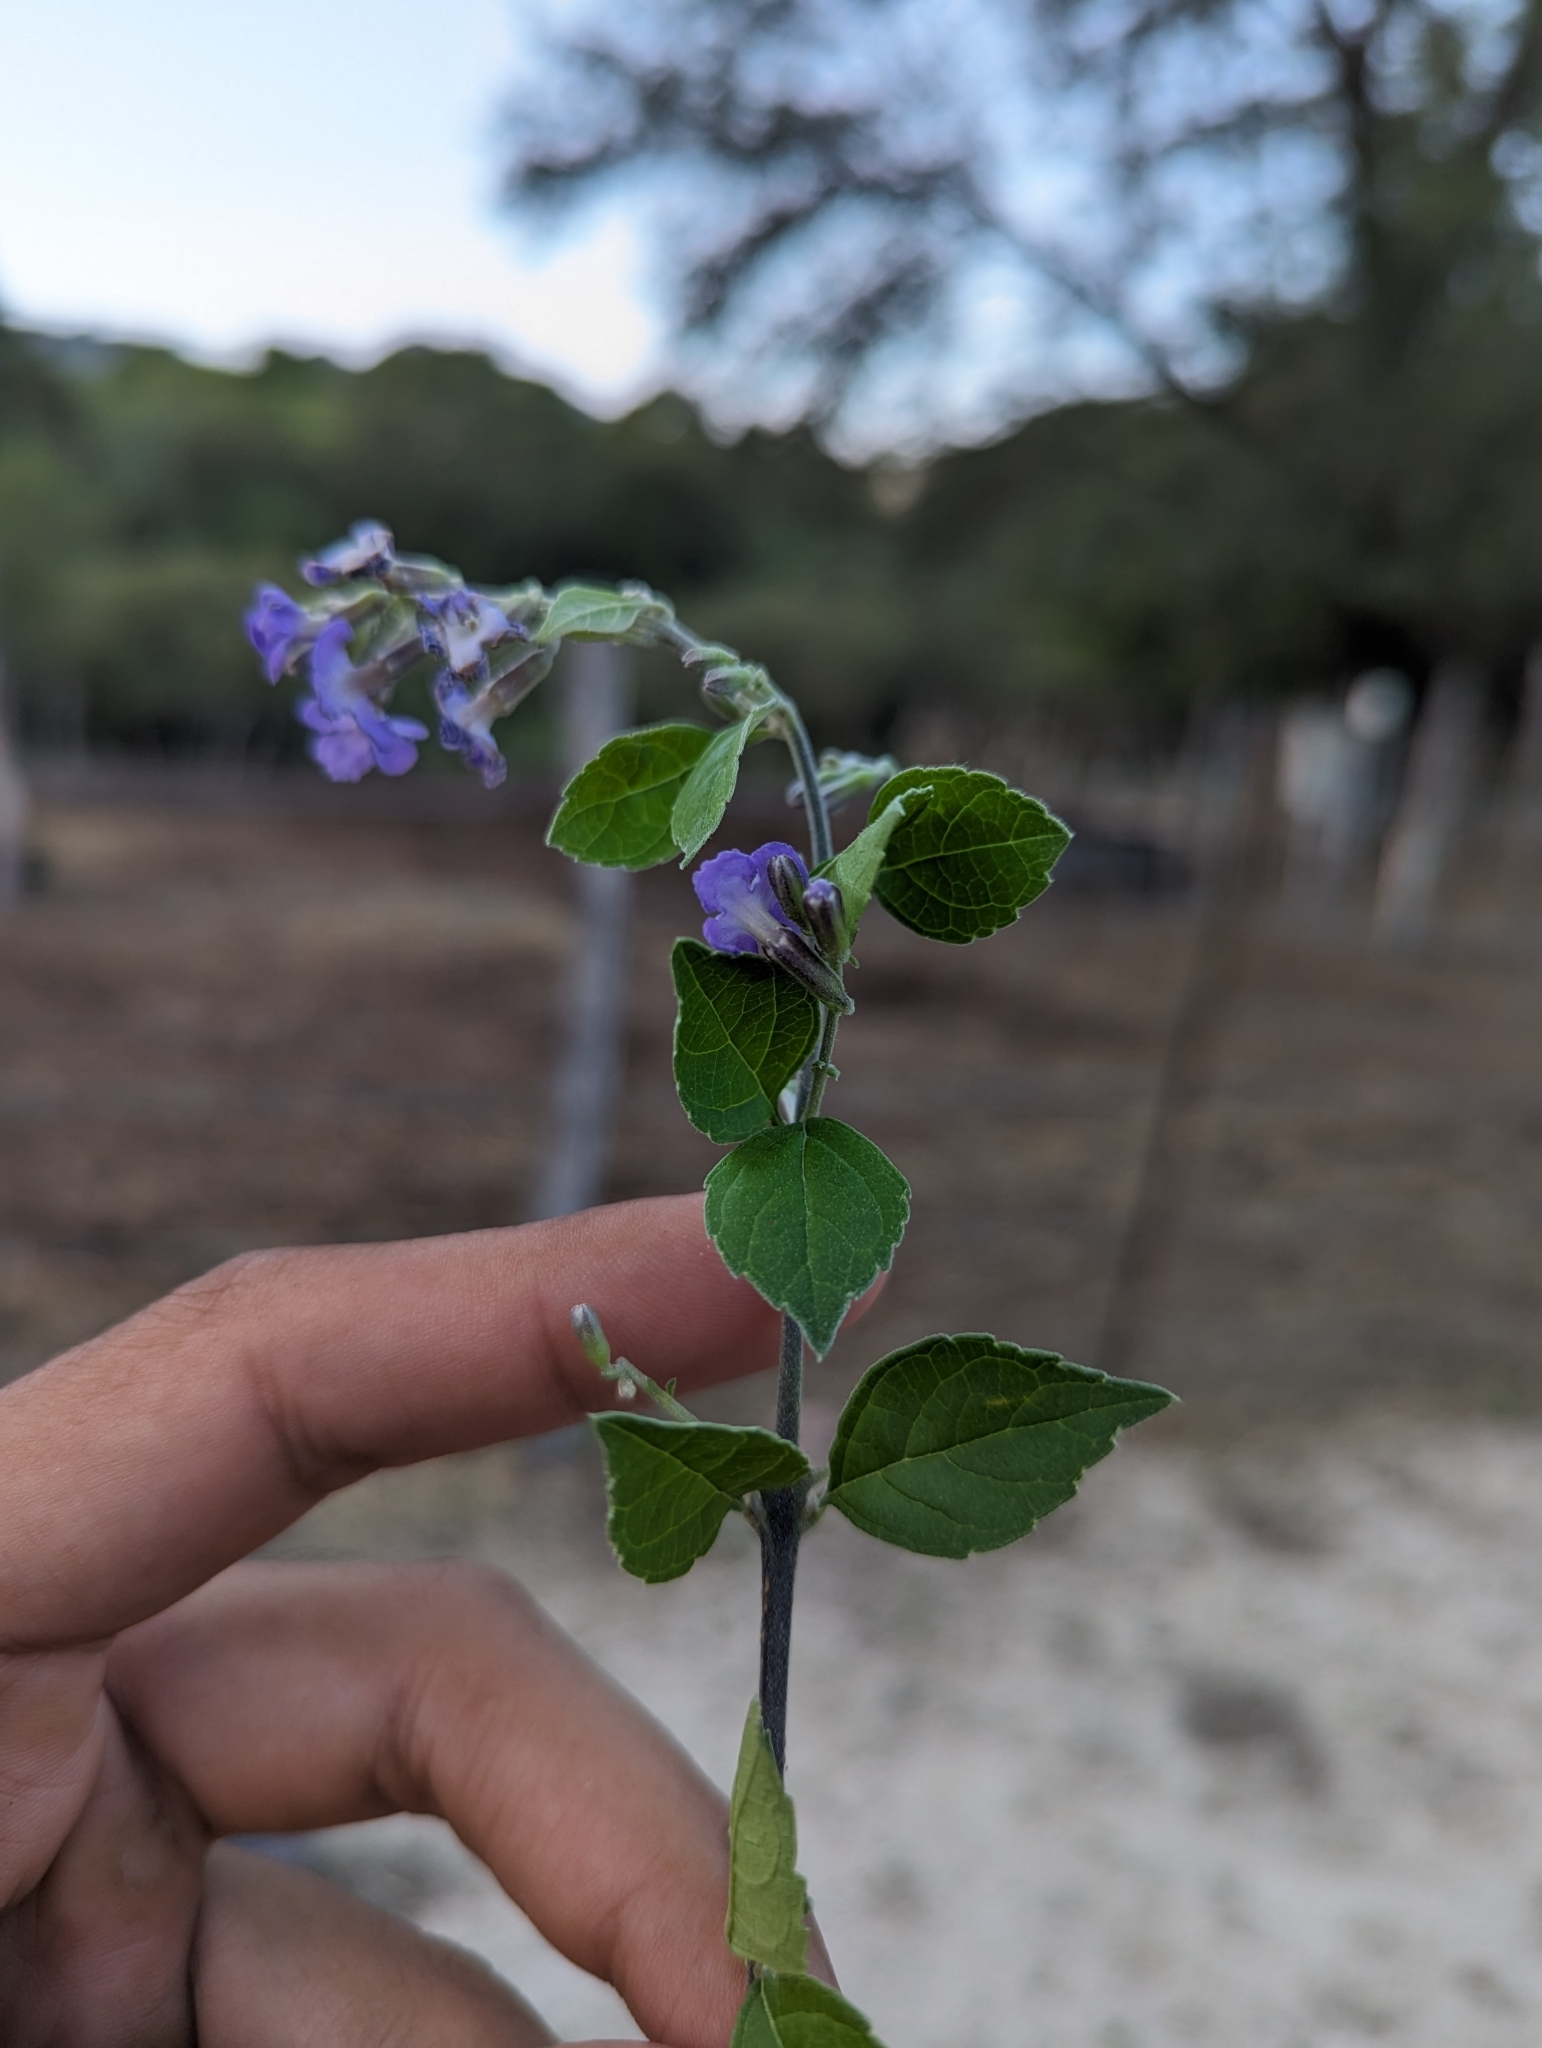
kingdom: Plantae
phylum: Tracheophyta
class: Magnoliopsida
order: Lamiales
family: Verbenaceae
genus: Duranta
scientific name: Duranta erecta
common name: Golden dewdrops
